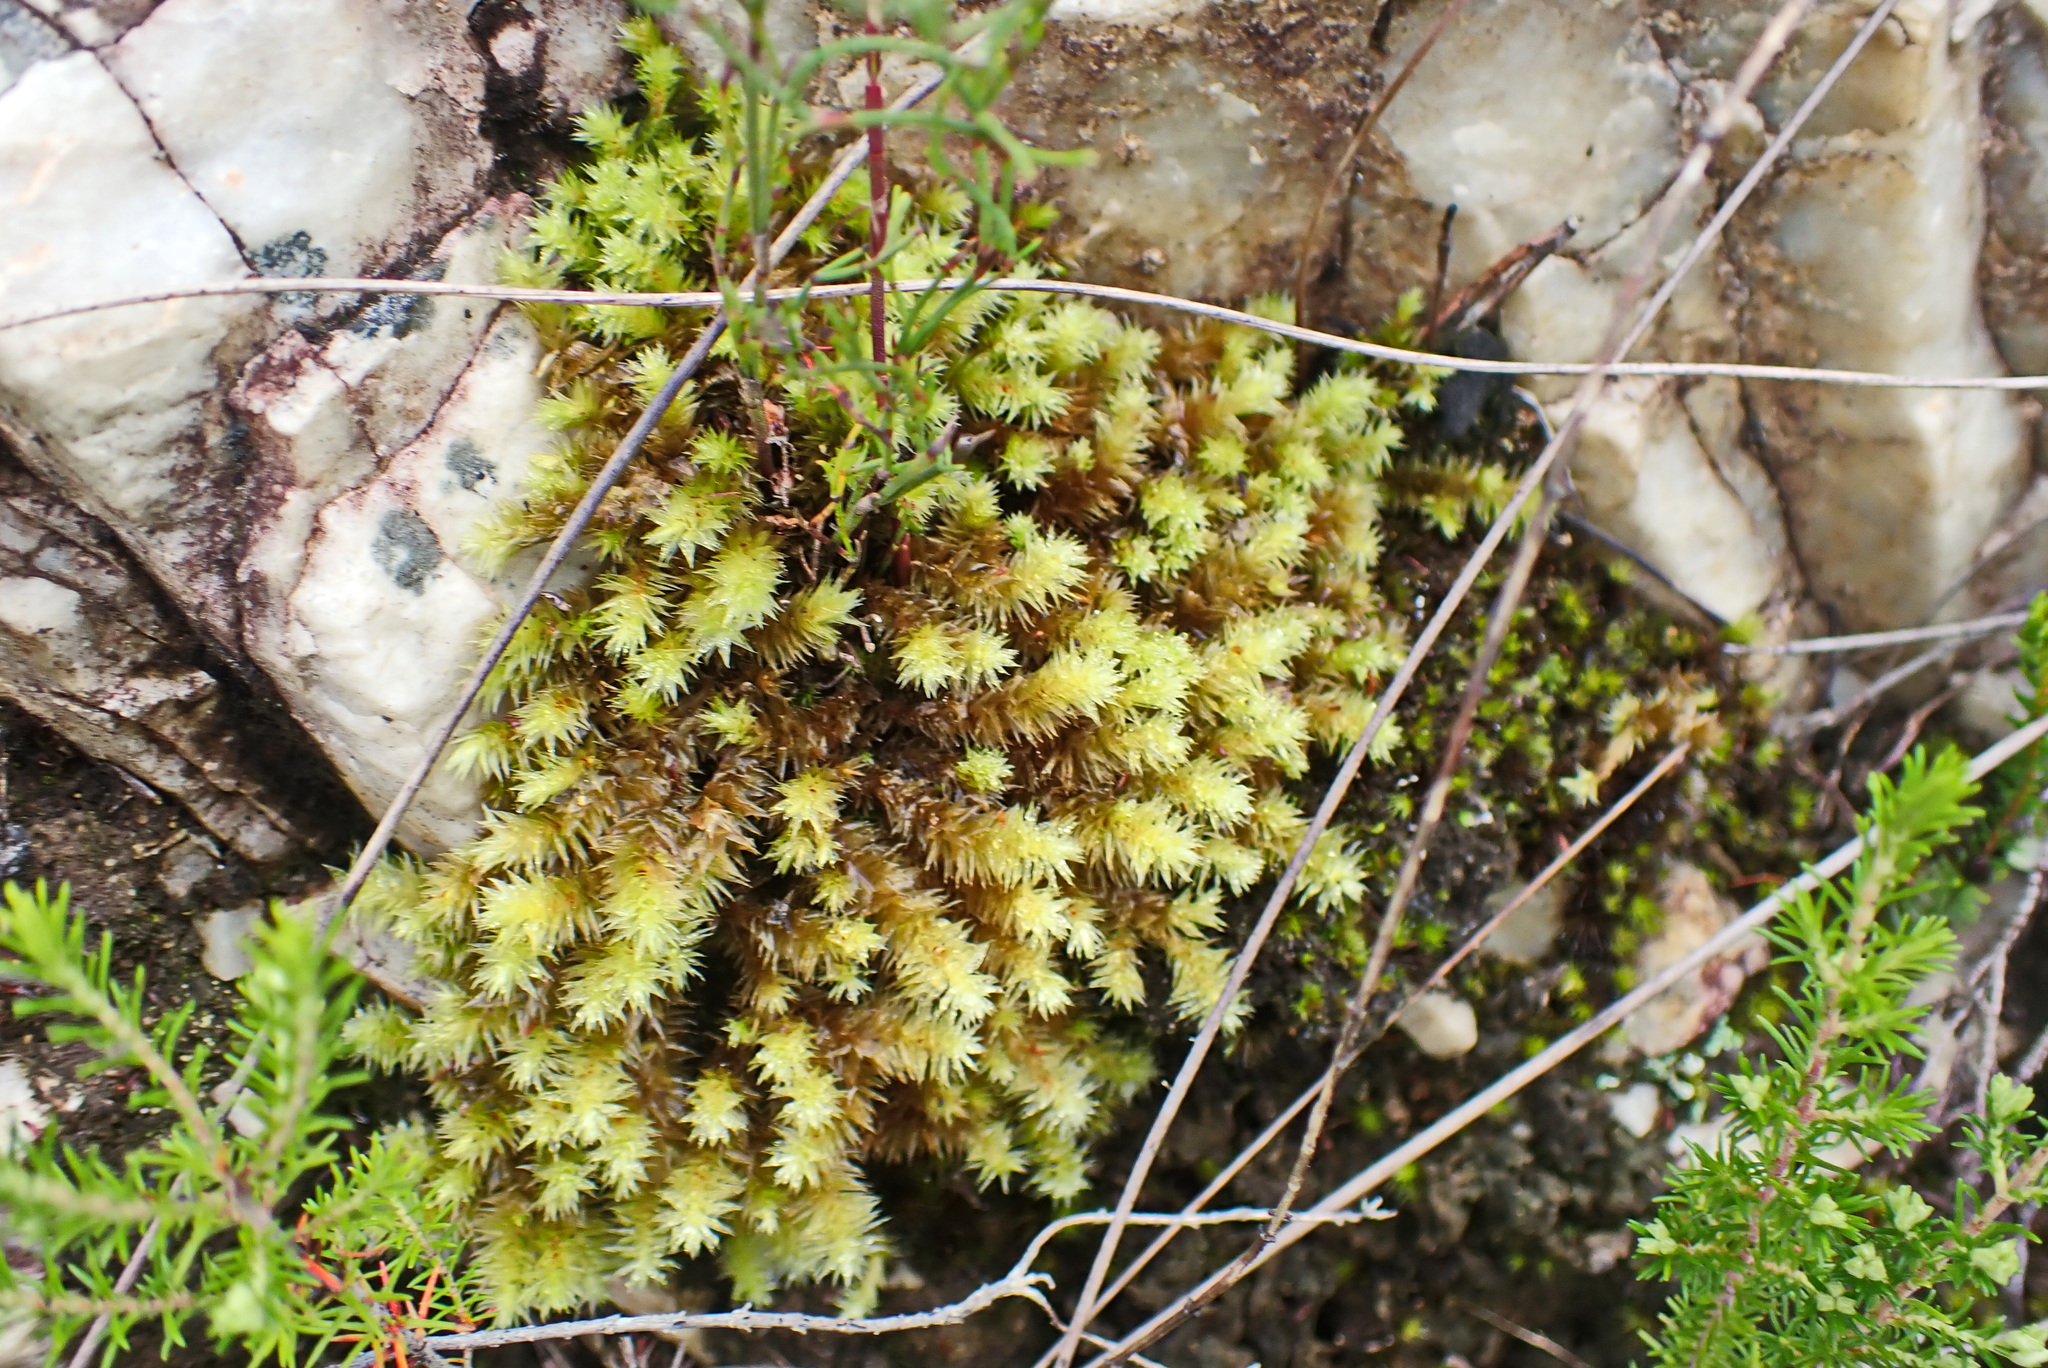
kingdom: Plantae
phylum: Bryophyta
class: Bryopsida
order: Bartramiales
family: Bartramiaceae
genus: Breutelia
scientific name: Breutelia elliptica
